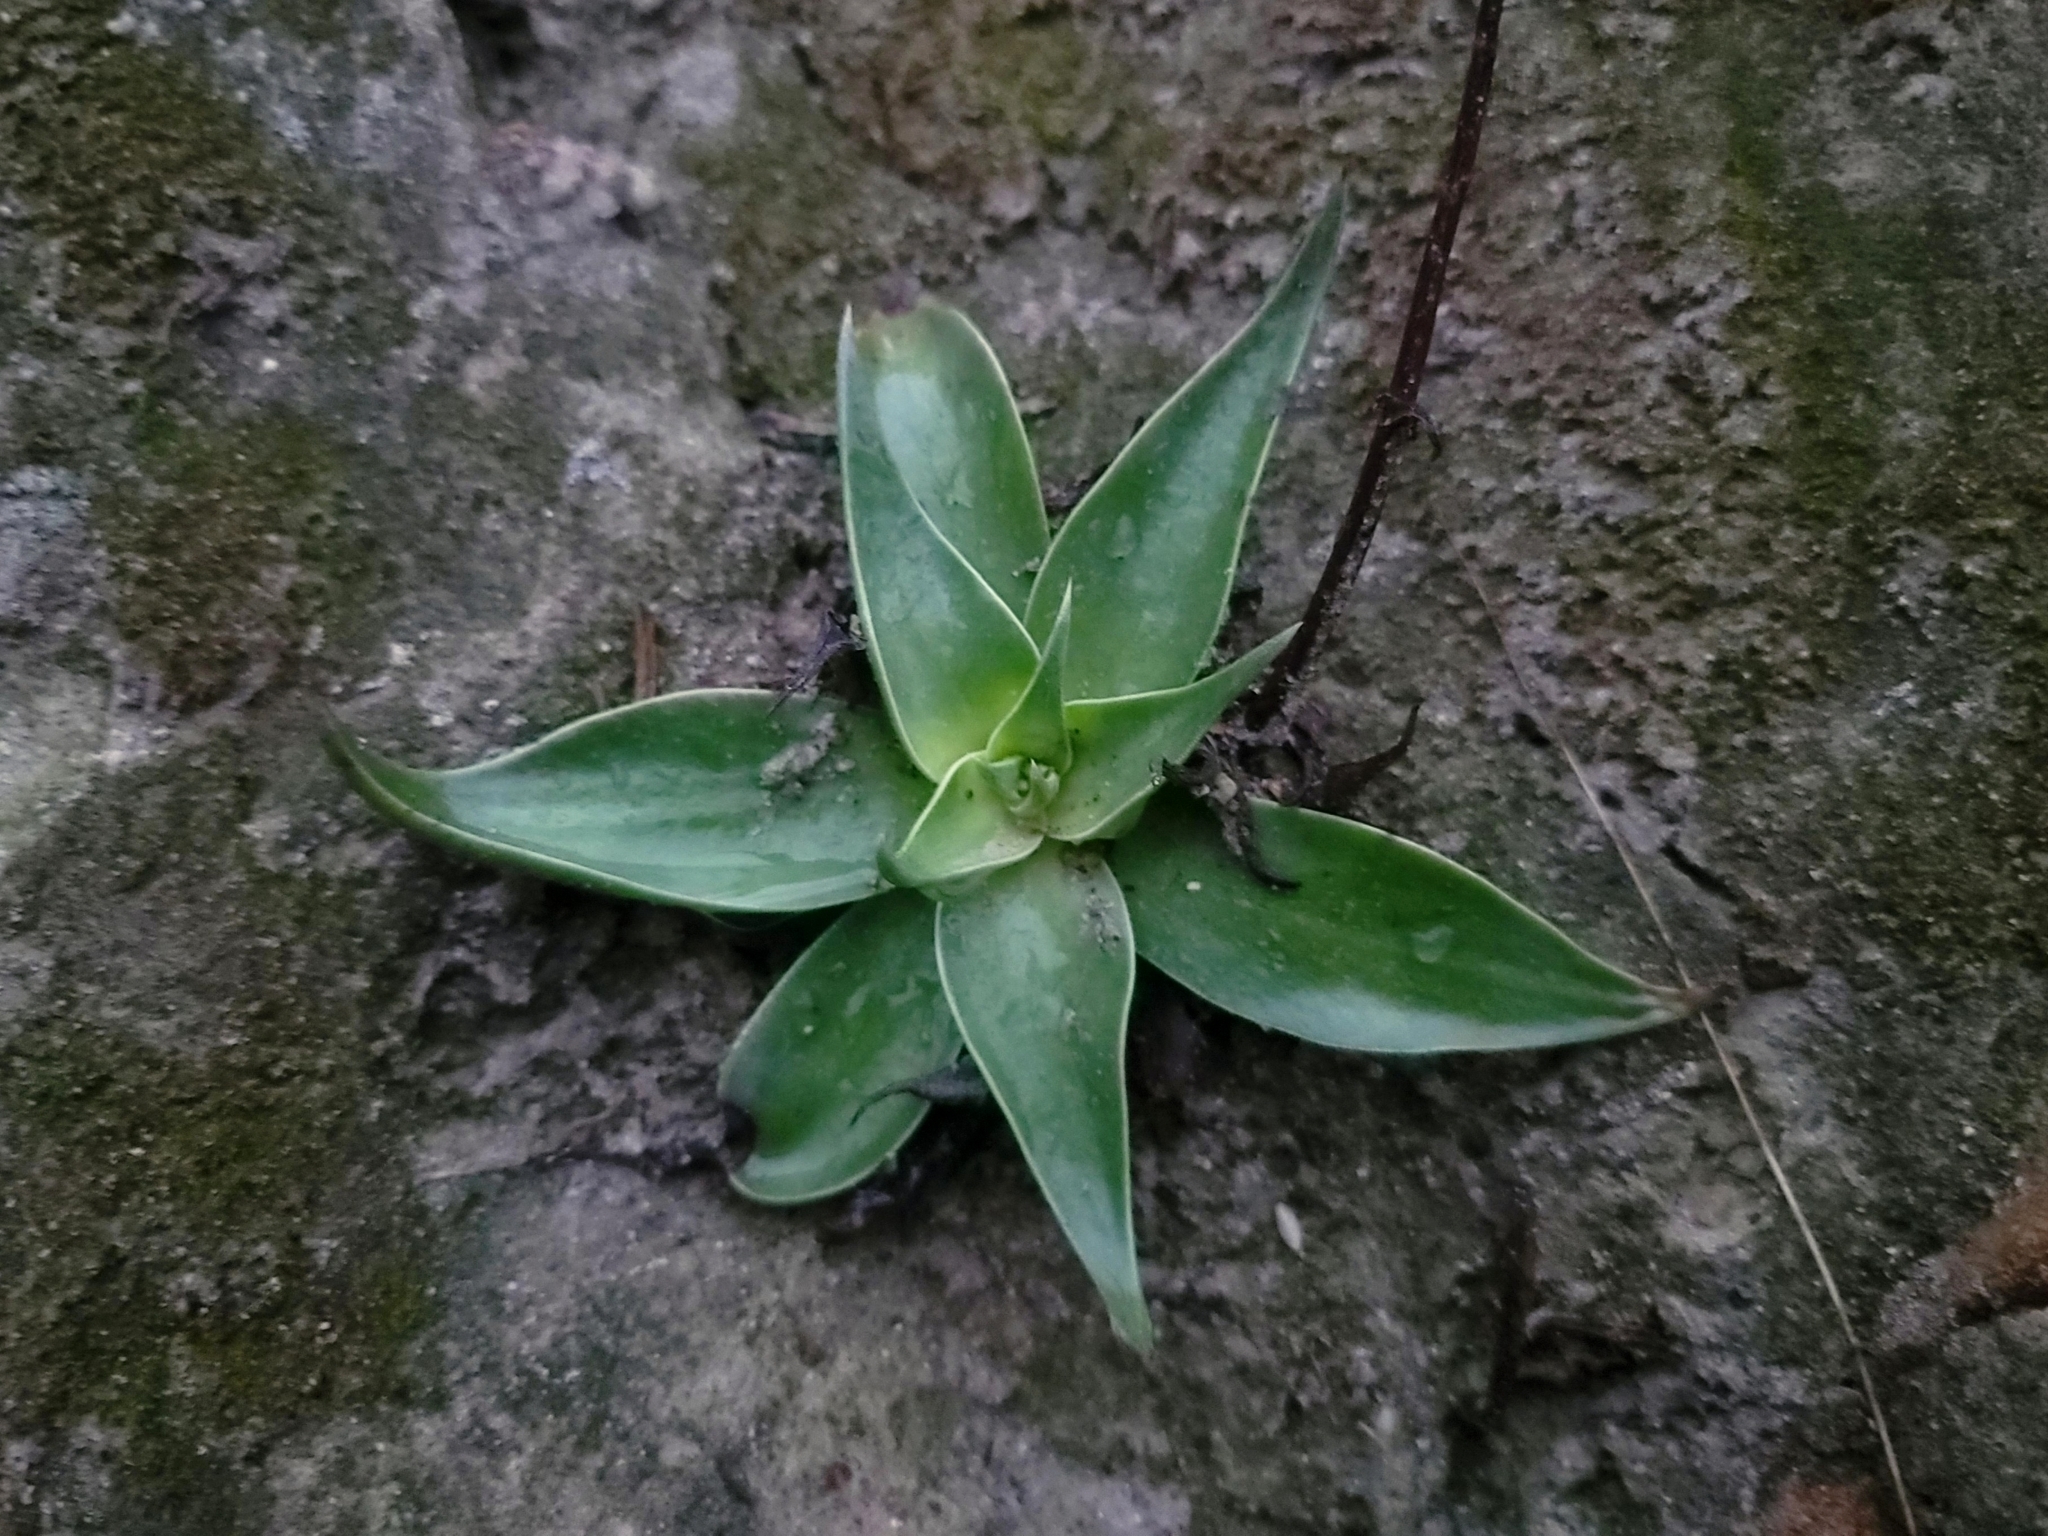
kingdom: Plantae
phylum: Tracheophyta
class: Magnoliopsida
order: Saxifragales
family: Crassulaceae
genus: Dudleya
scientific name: Dudleya lanceolata
